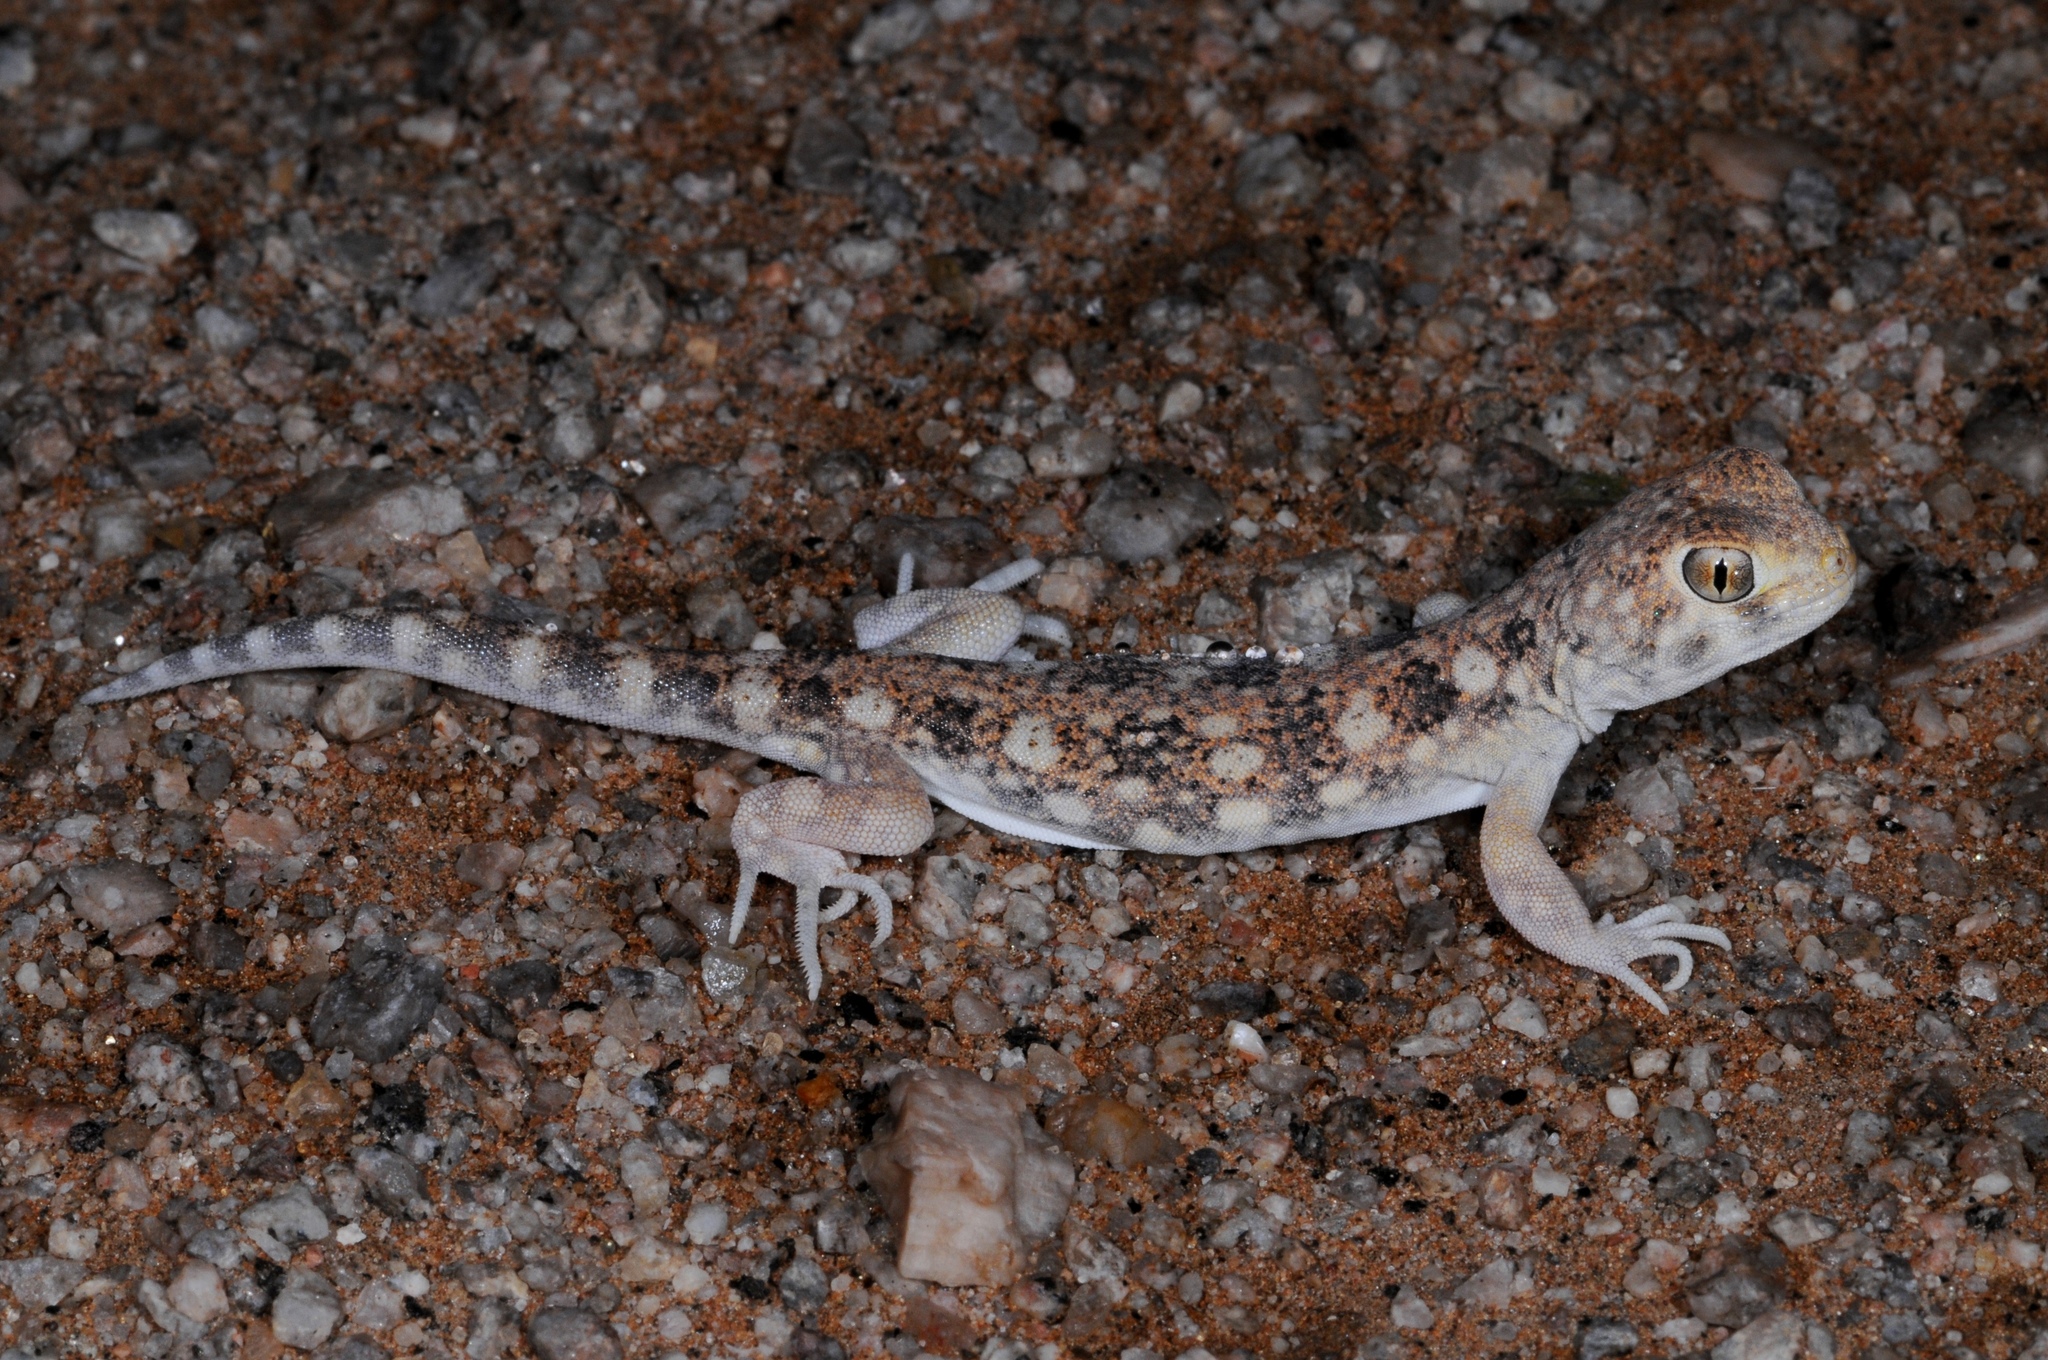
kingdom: Animalia
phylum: Chordata
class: Squamata
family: Gekkonidae
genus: Ptenopus
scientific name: Ptenopus garrulus
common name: Whistling gecko
